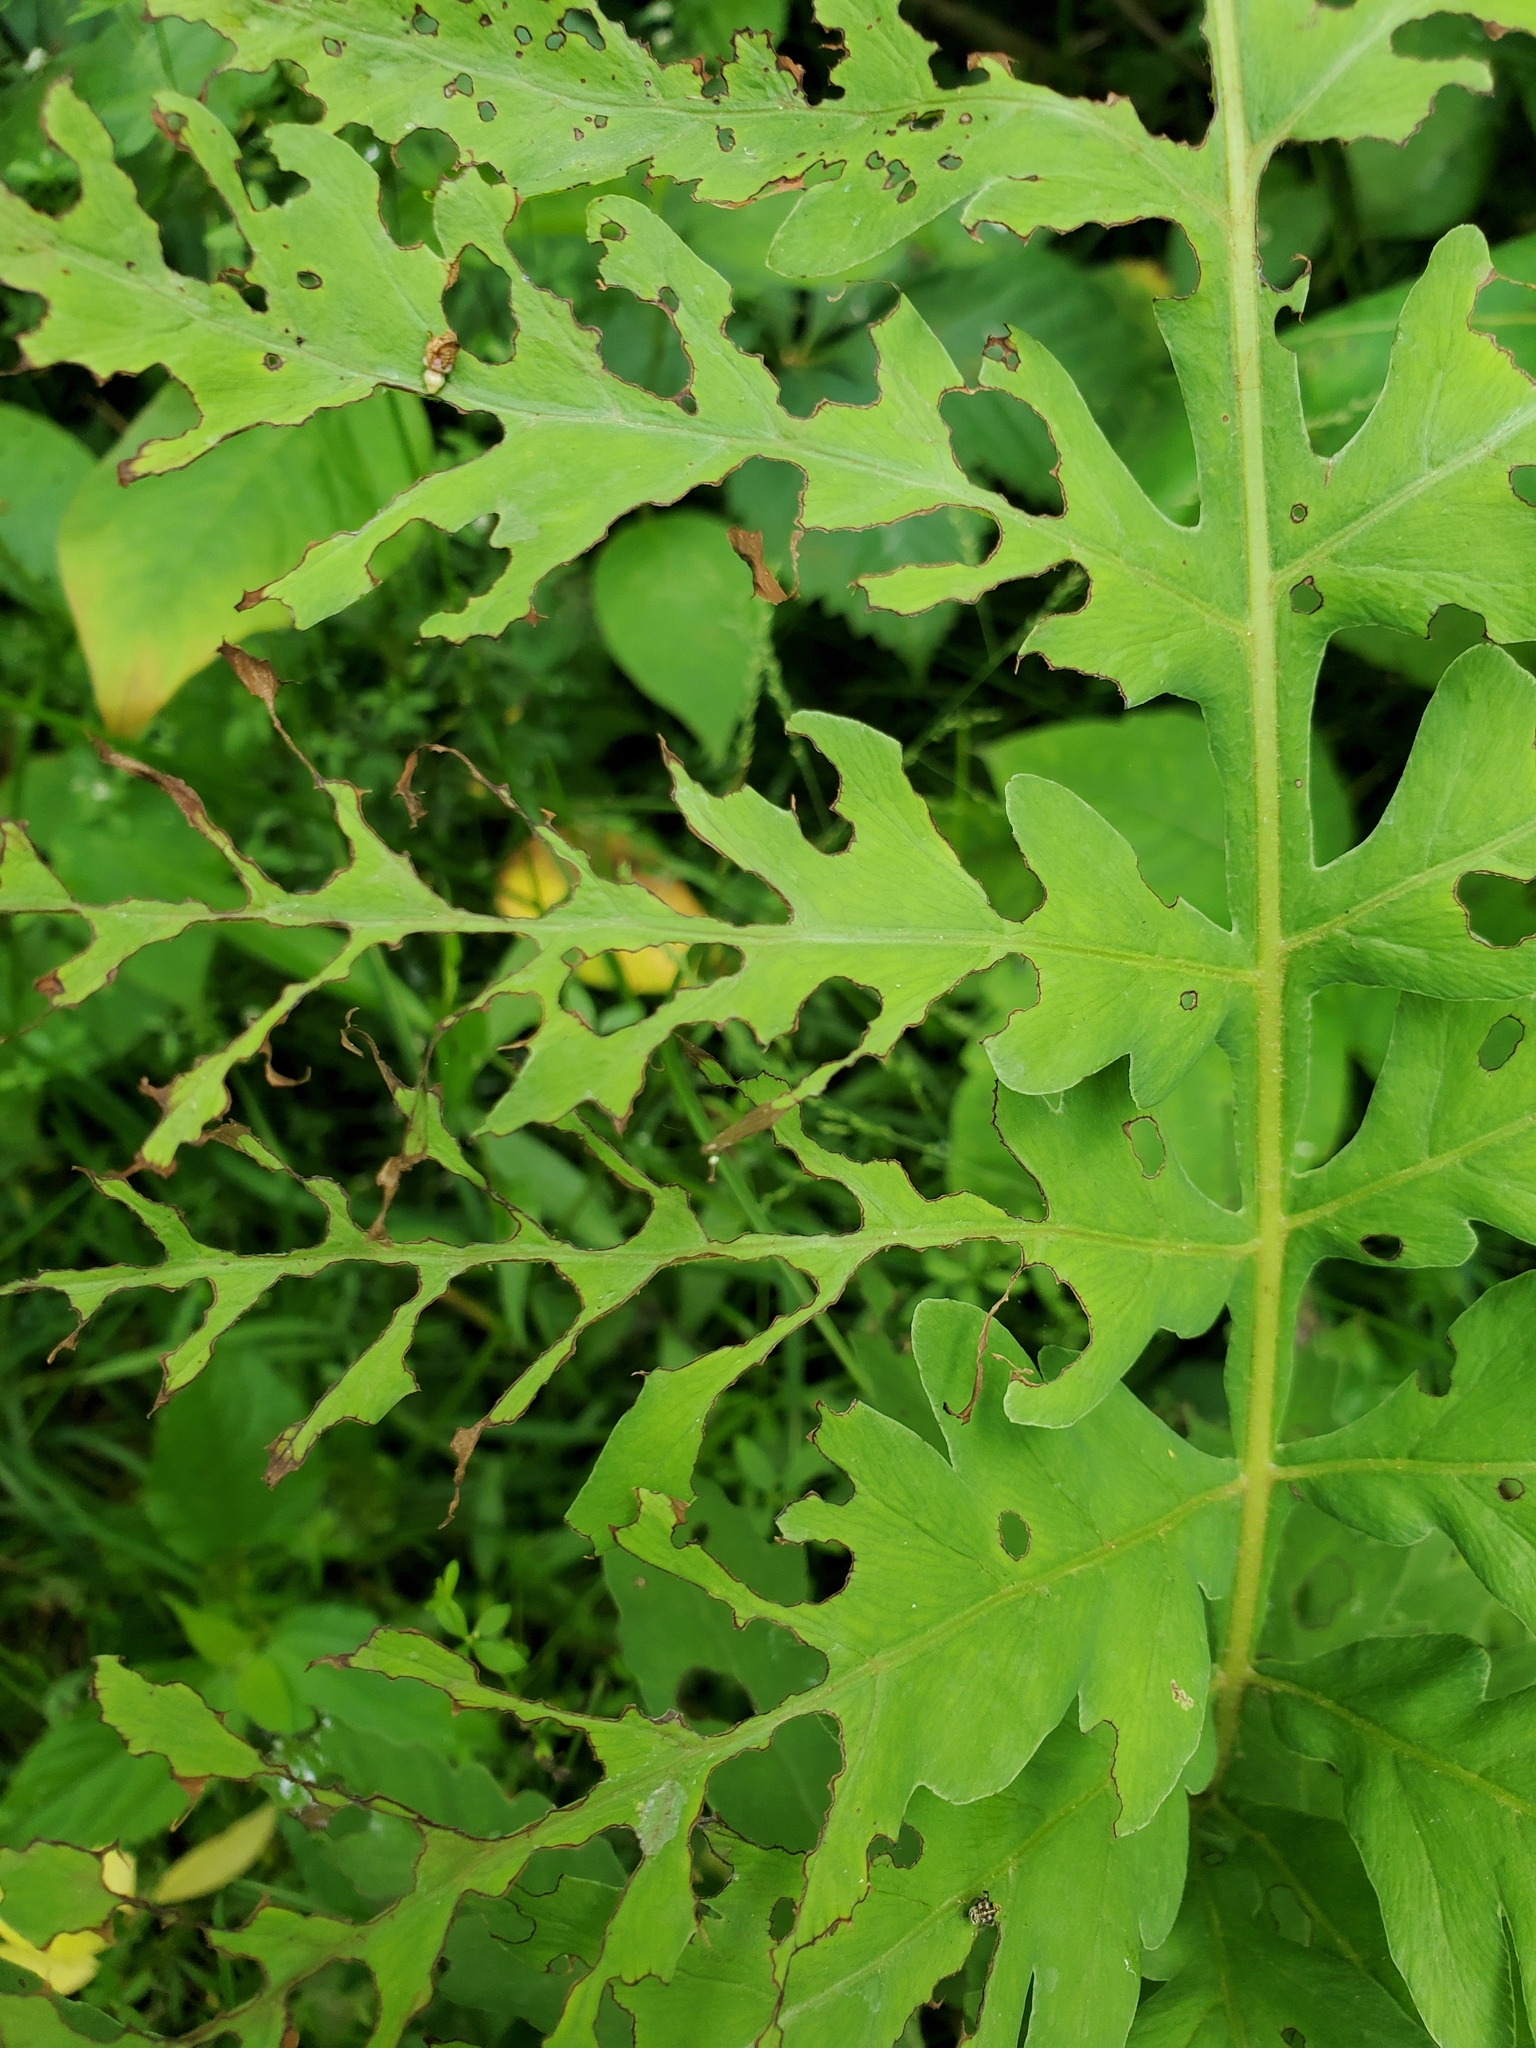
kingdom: Plantae
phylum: Tracheophyta
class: Polypodiopsida
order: Polypodiales
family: Onocleaceae
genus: Onoclea
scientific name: Onoclea sensibilis
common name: Sensitive fern
